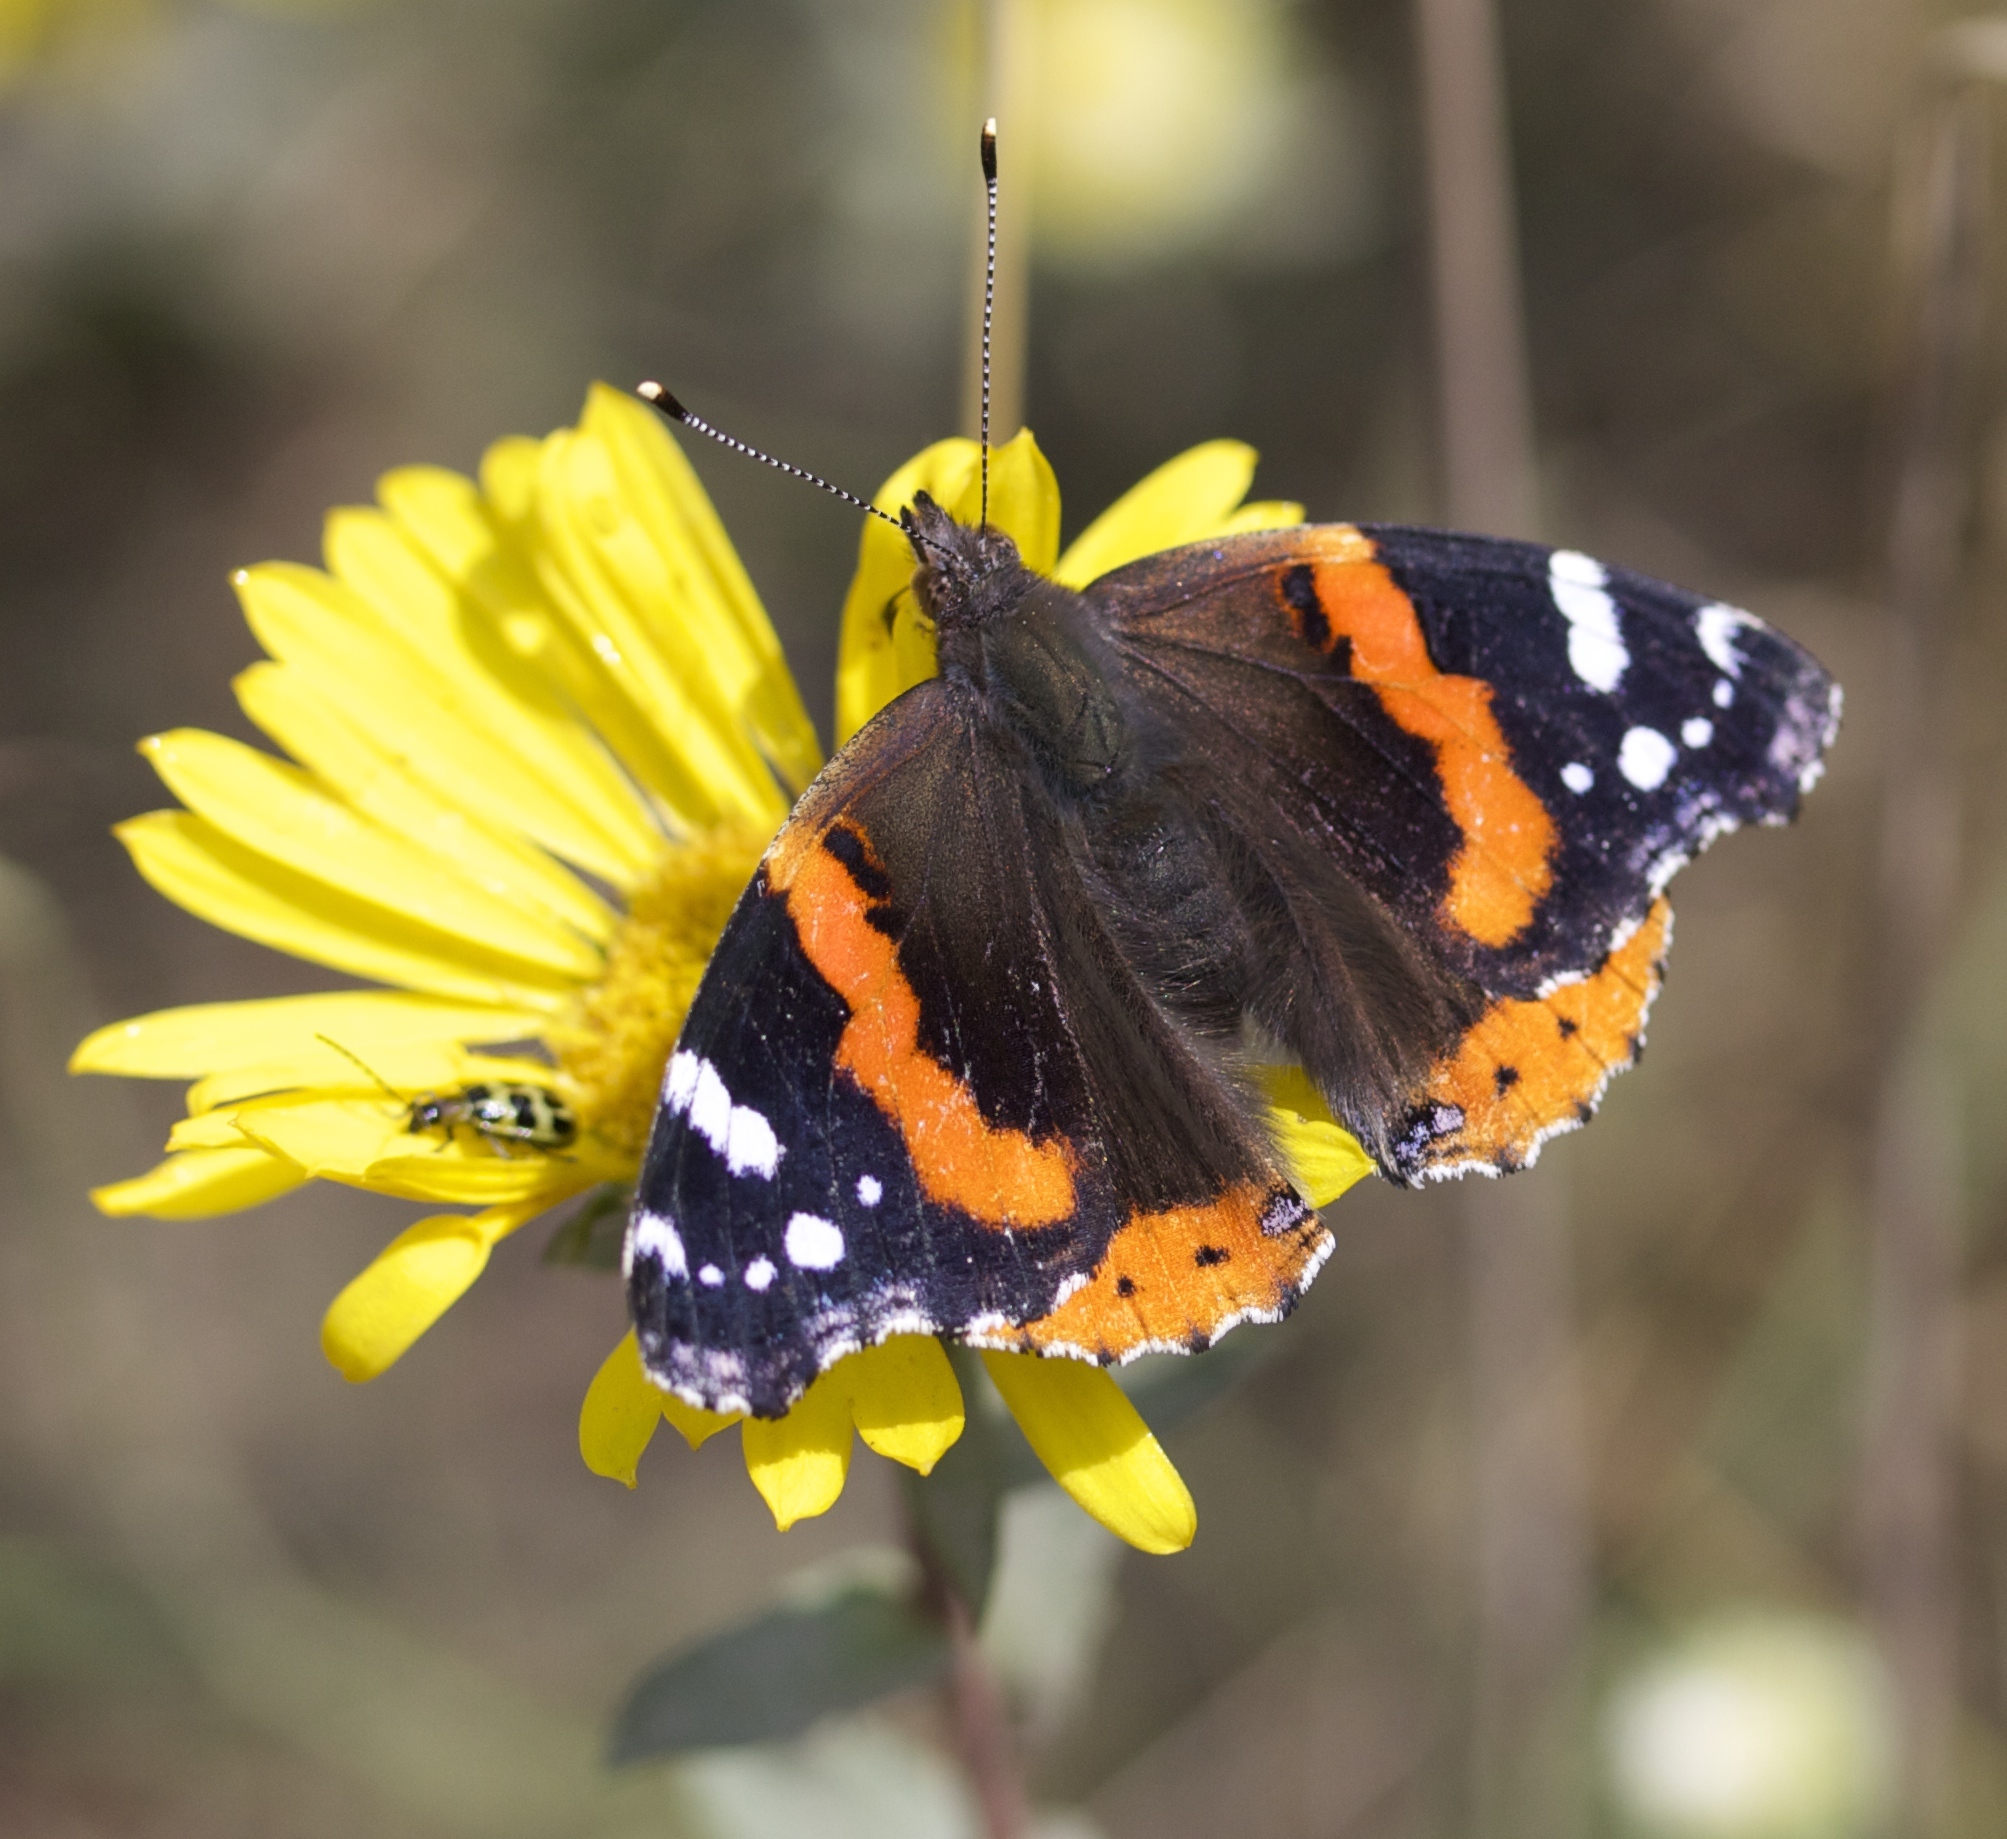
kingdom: Animalia
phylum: Arthropoda
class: Insecta
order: Lepidoptera
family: Nymphalidae
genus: Vanessa
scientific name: Vanessa atalanta
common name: Red admiral
